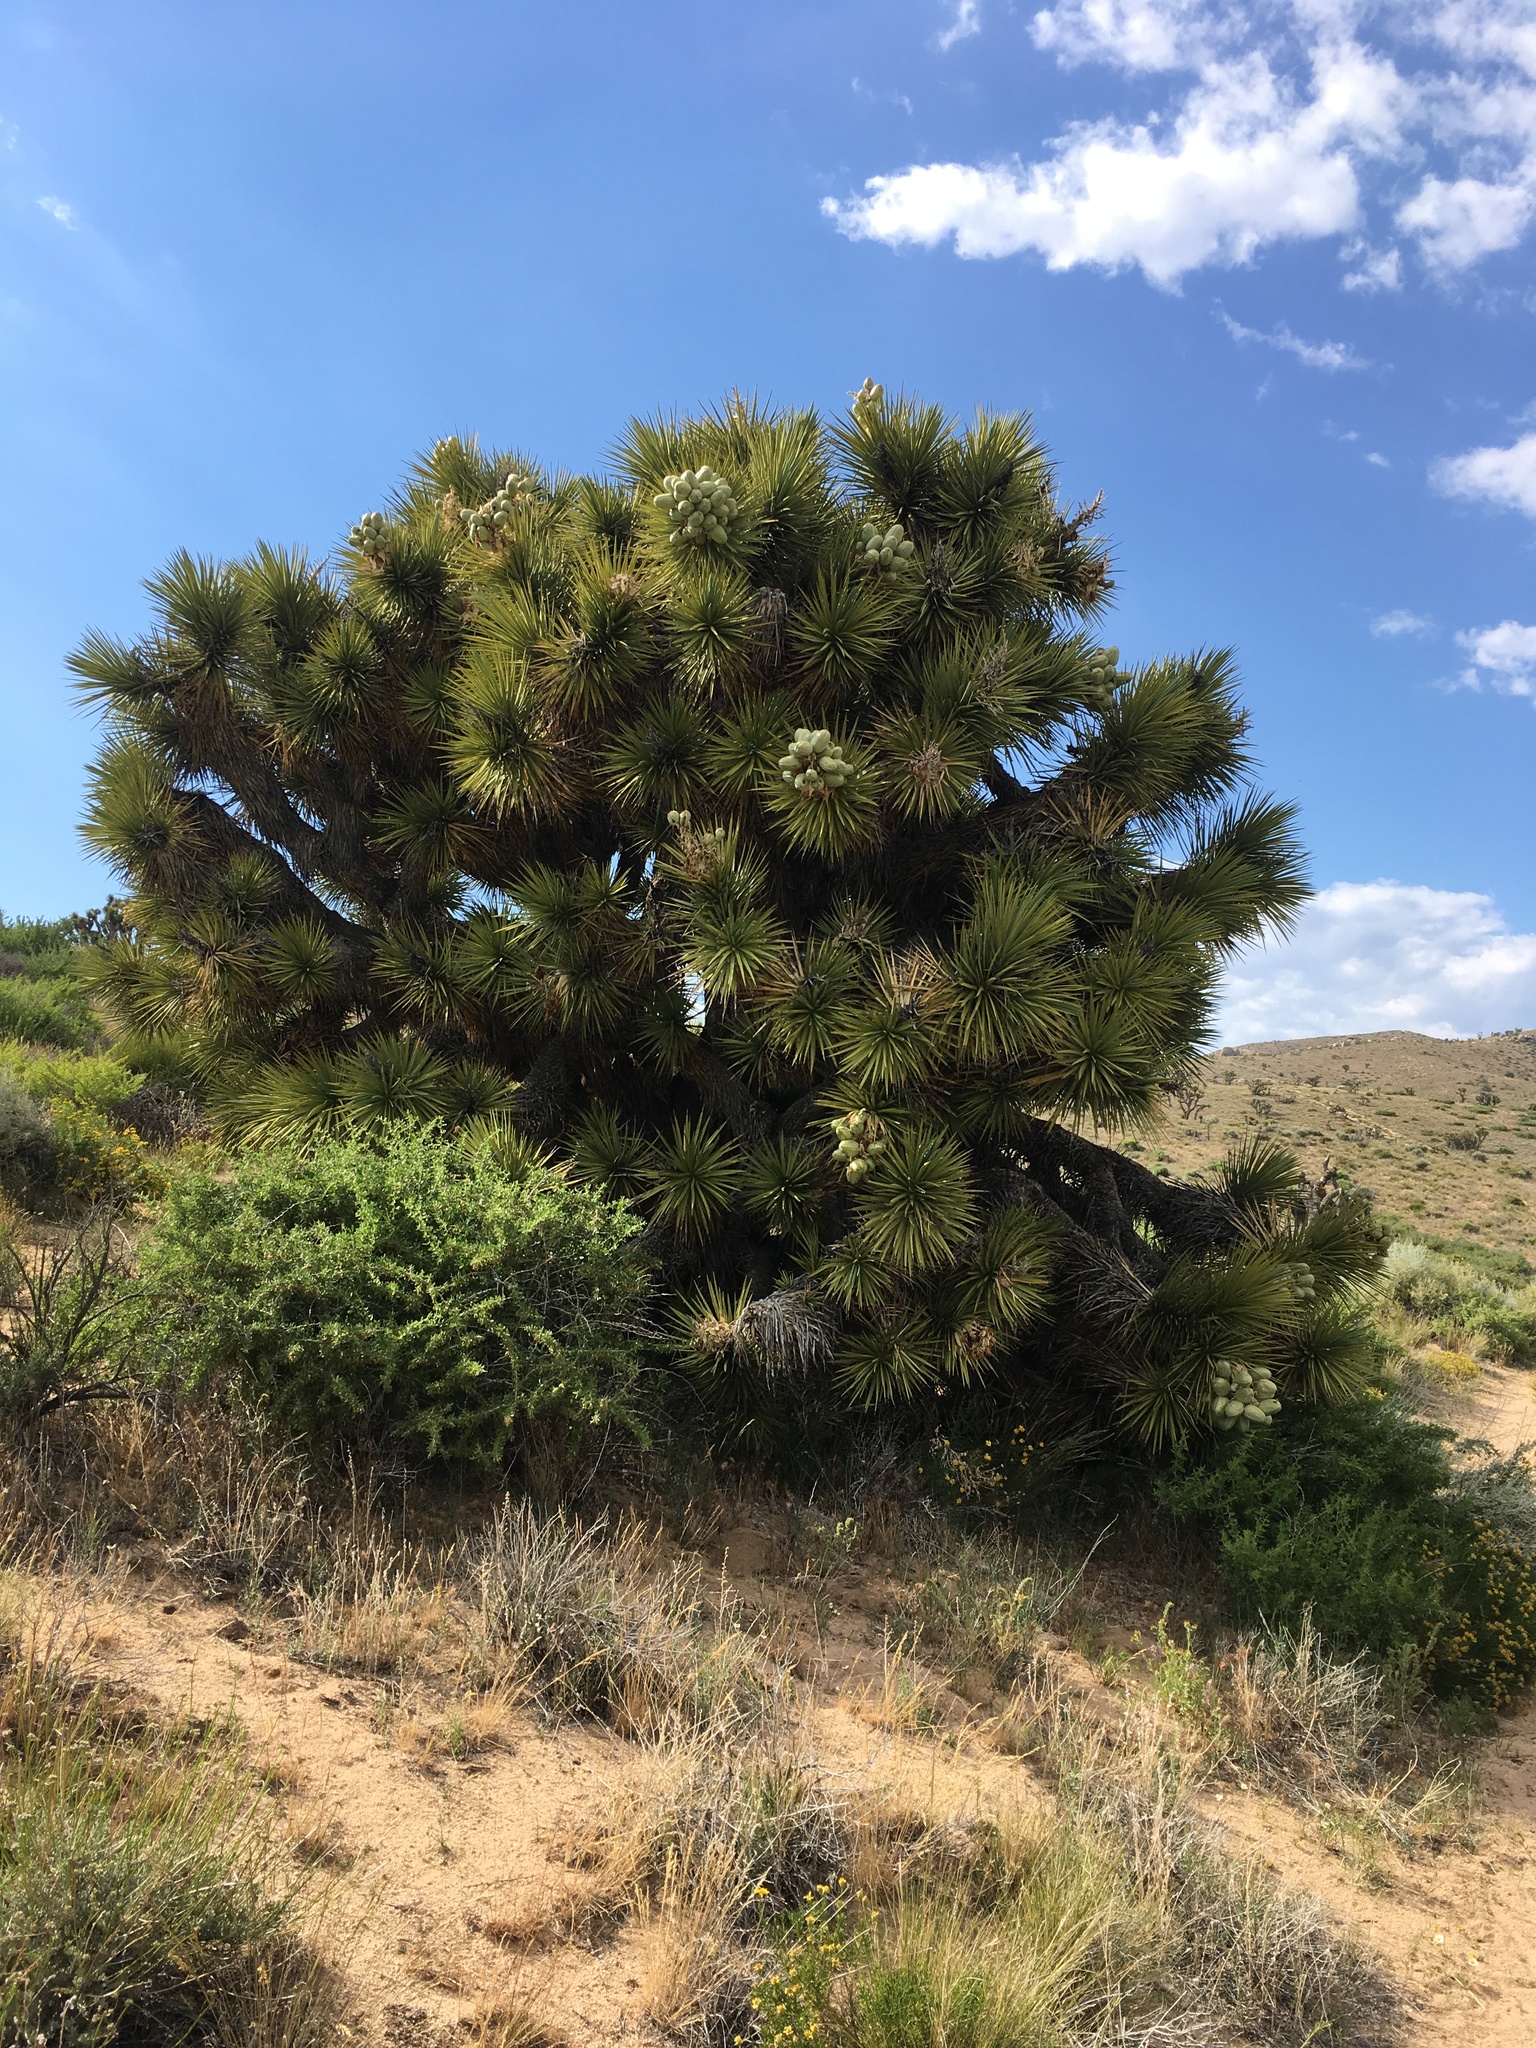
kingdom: Plantae
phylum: Tracheophyta
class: Liliopsida
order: Asparagales
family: Asparagaceae
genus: Yucca
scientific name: Yucca brevifolia
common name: Joshua tree
